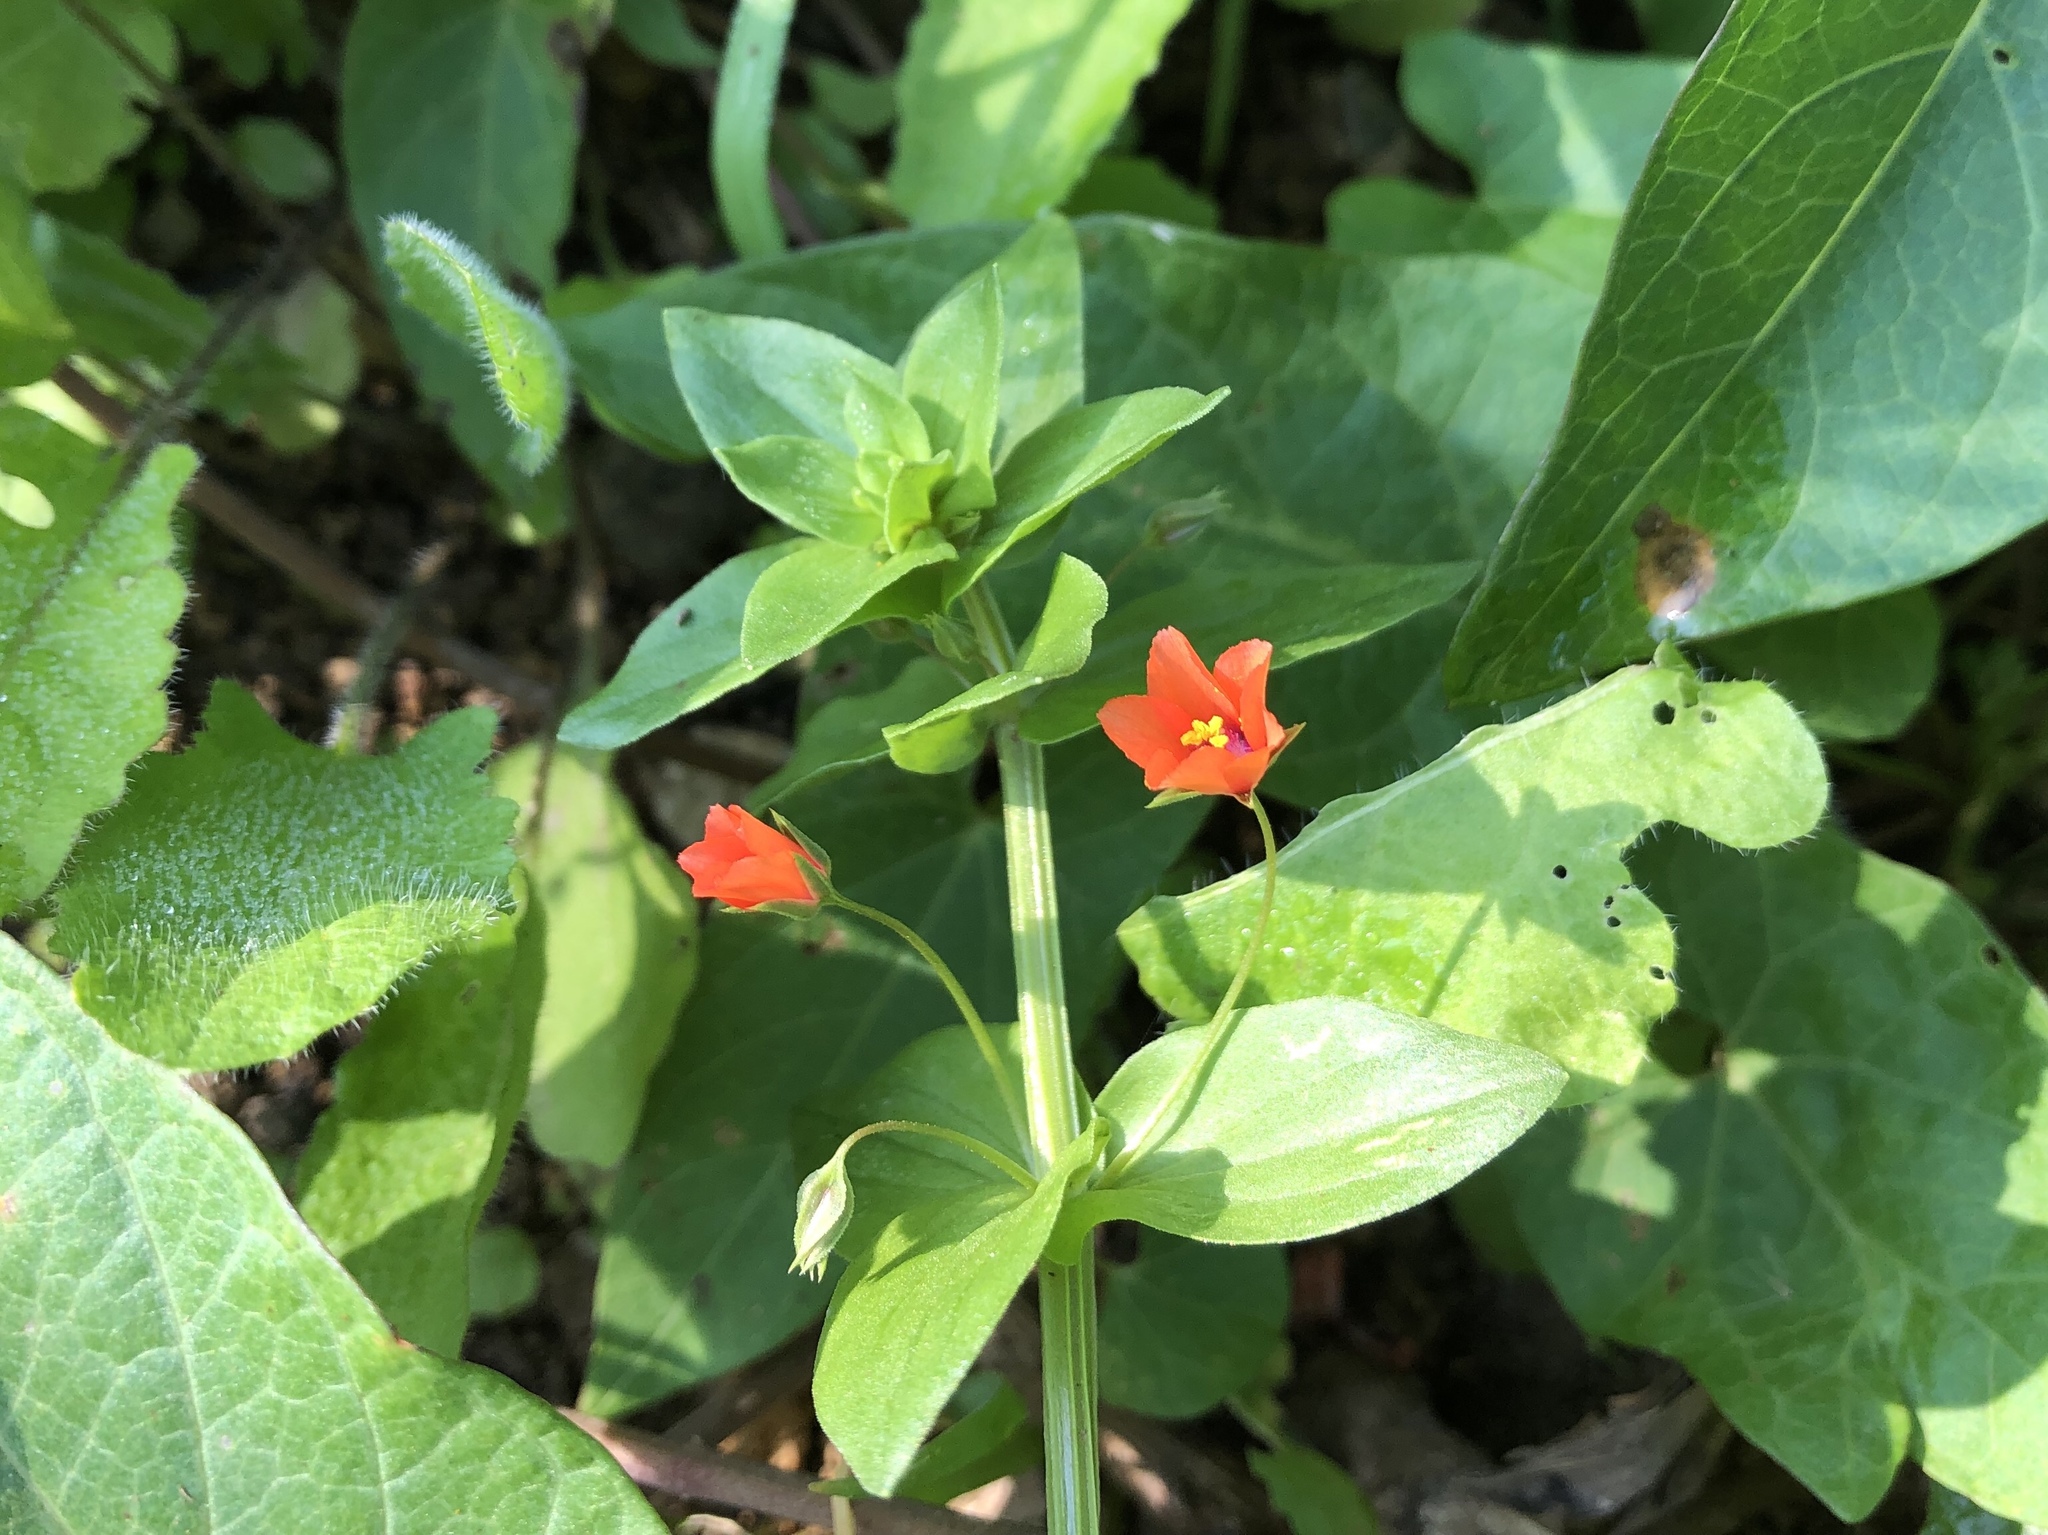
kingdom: Plantae
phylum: Tracheophyta
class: Magnoliopsida
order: Ericales
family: Primulaceae
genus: Lysimachia
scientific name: Lysimachia arvensis
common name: Scarlet pimpernel
